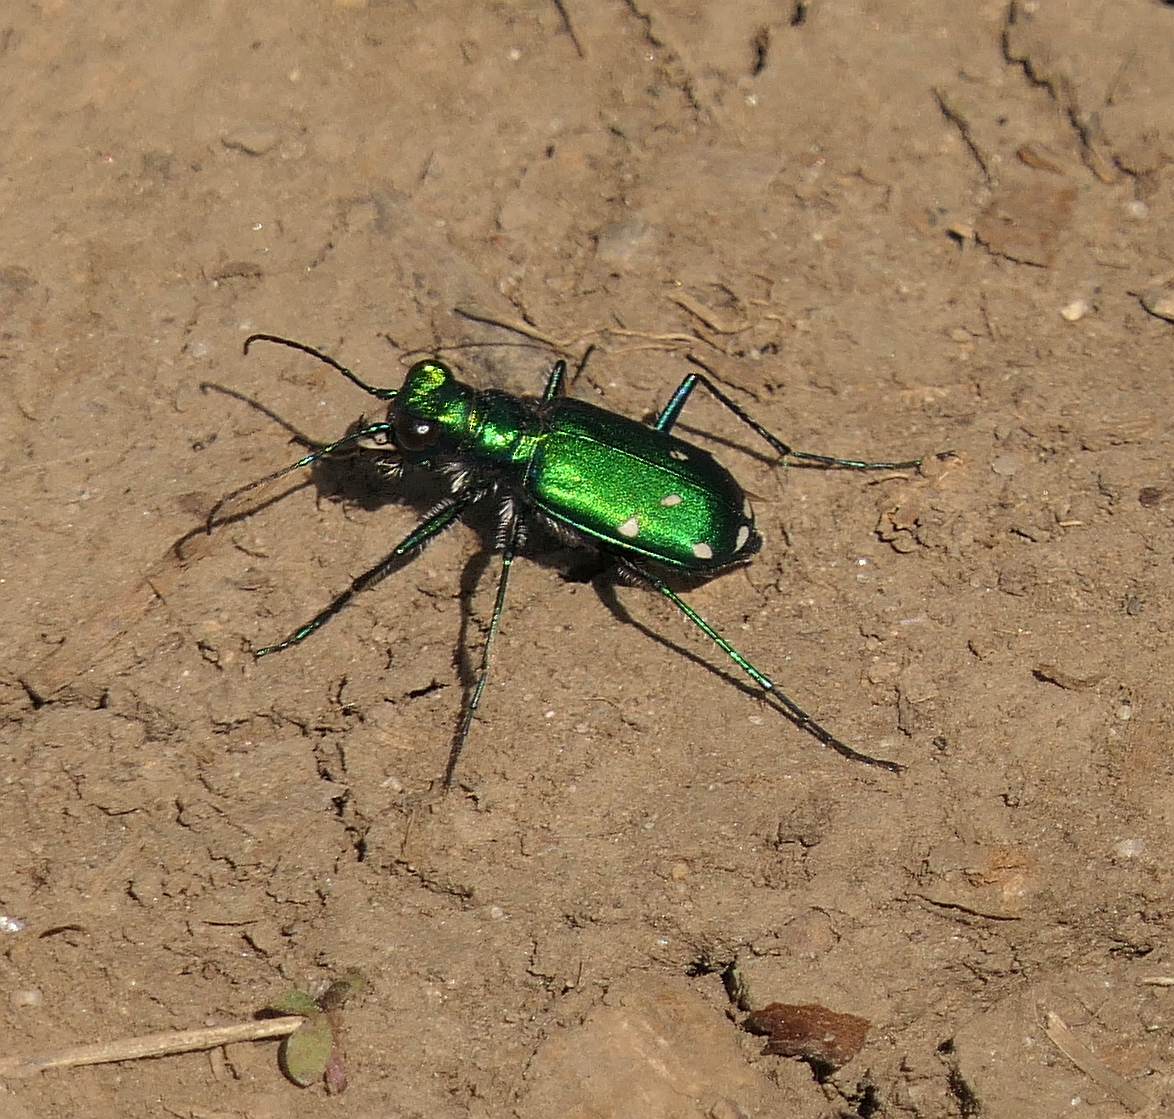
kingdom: Animalia
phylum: Arthropoda
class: Insecta
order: Coleoptera
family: Carabidae
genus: Cicindela
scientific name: Cicindela sexguttata
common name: Six-spotted tiger beetle
